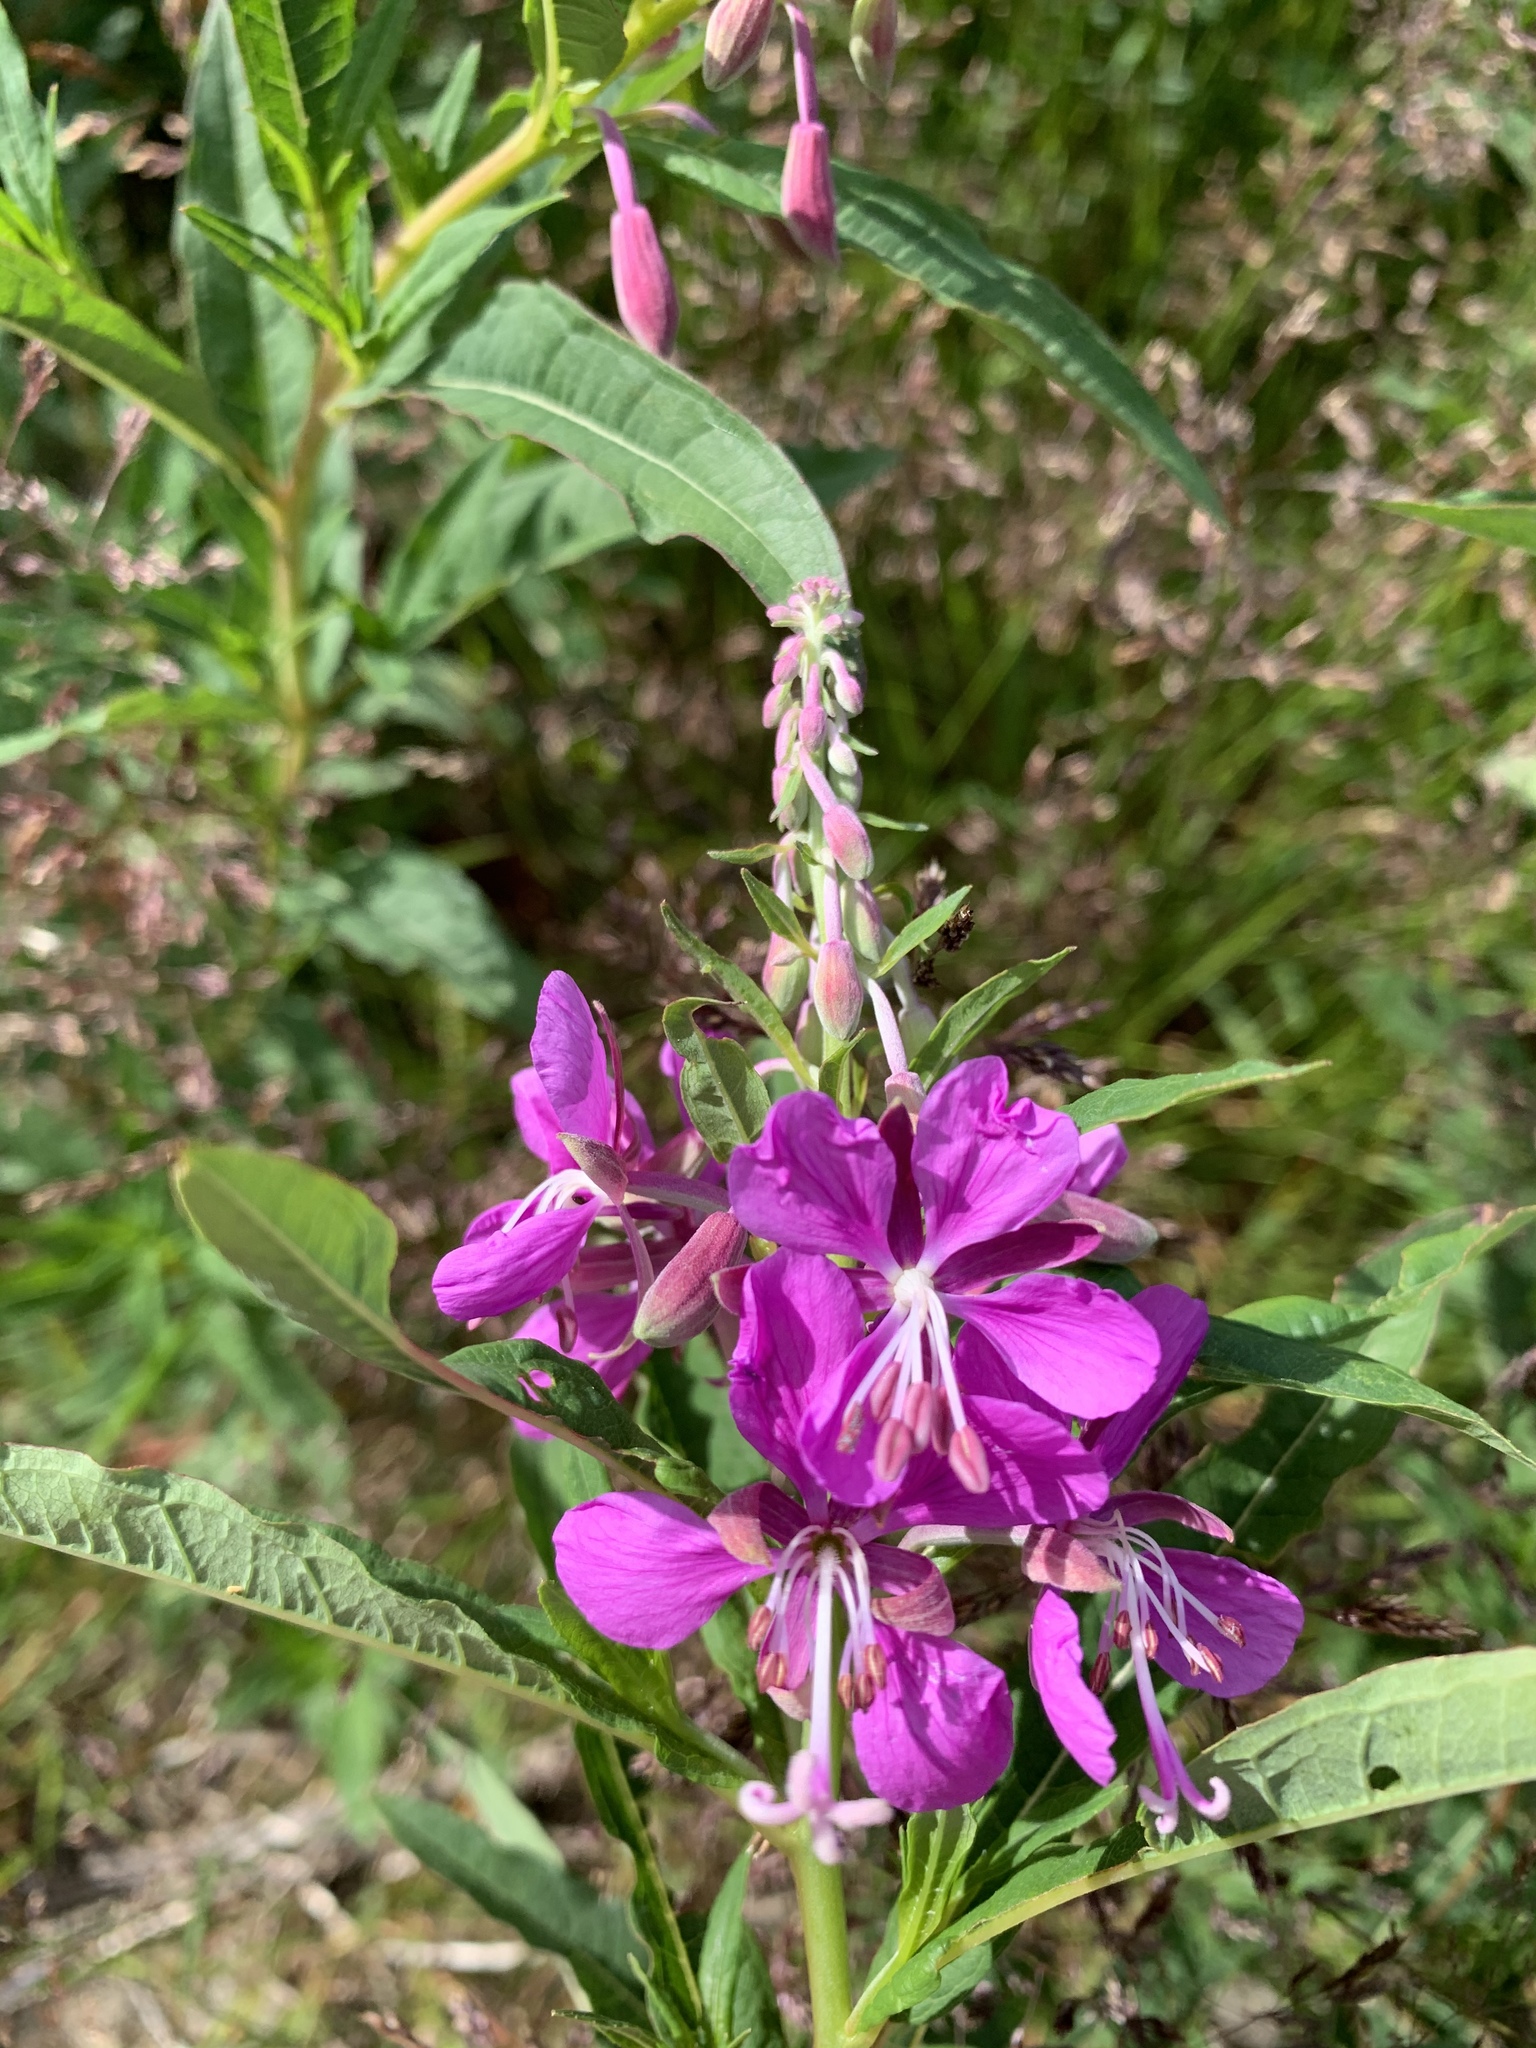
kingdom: Plantae
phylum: Tracheophyta
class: Magnoliopsida
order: Myrtales
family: Onagraceae
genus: Chamaenerion
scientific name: Chamaenerion angustifolium
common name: Fireweed
